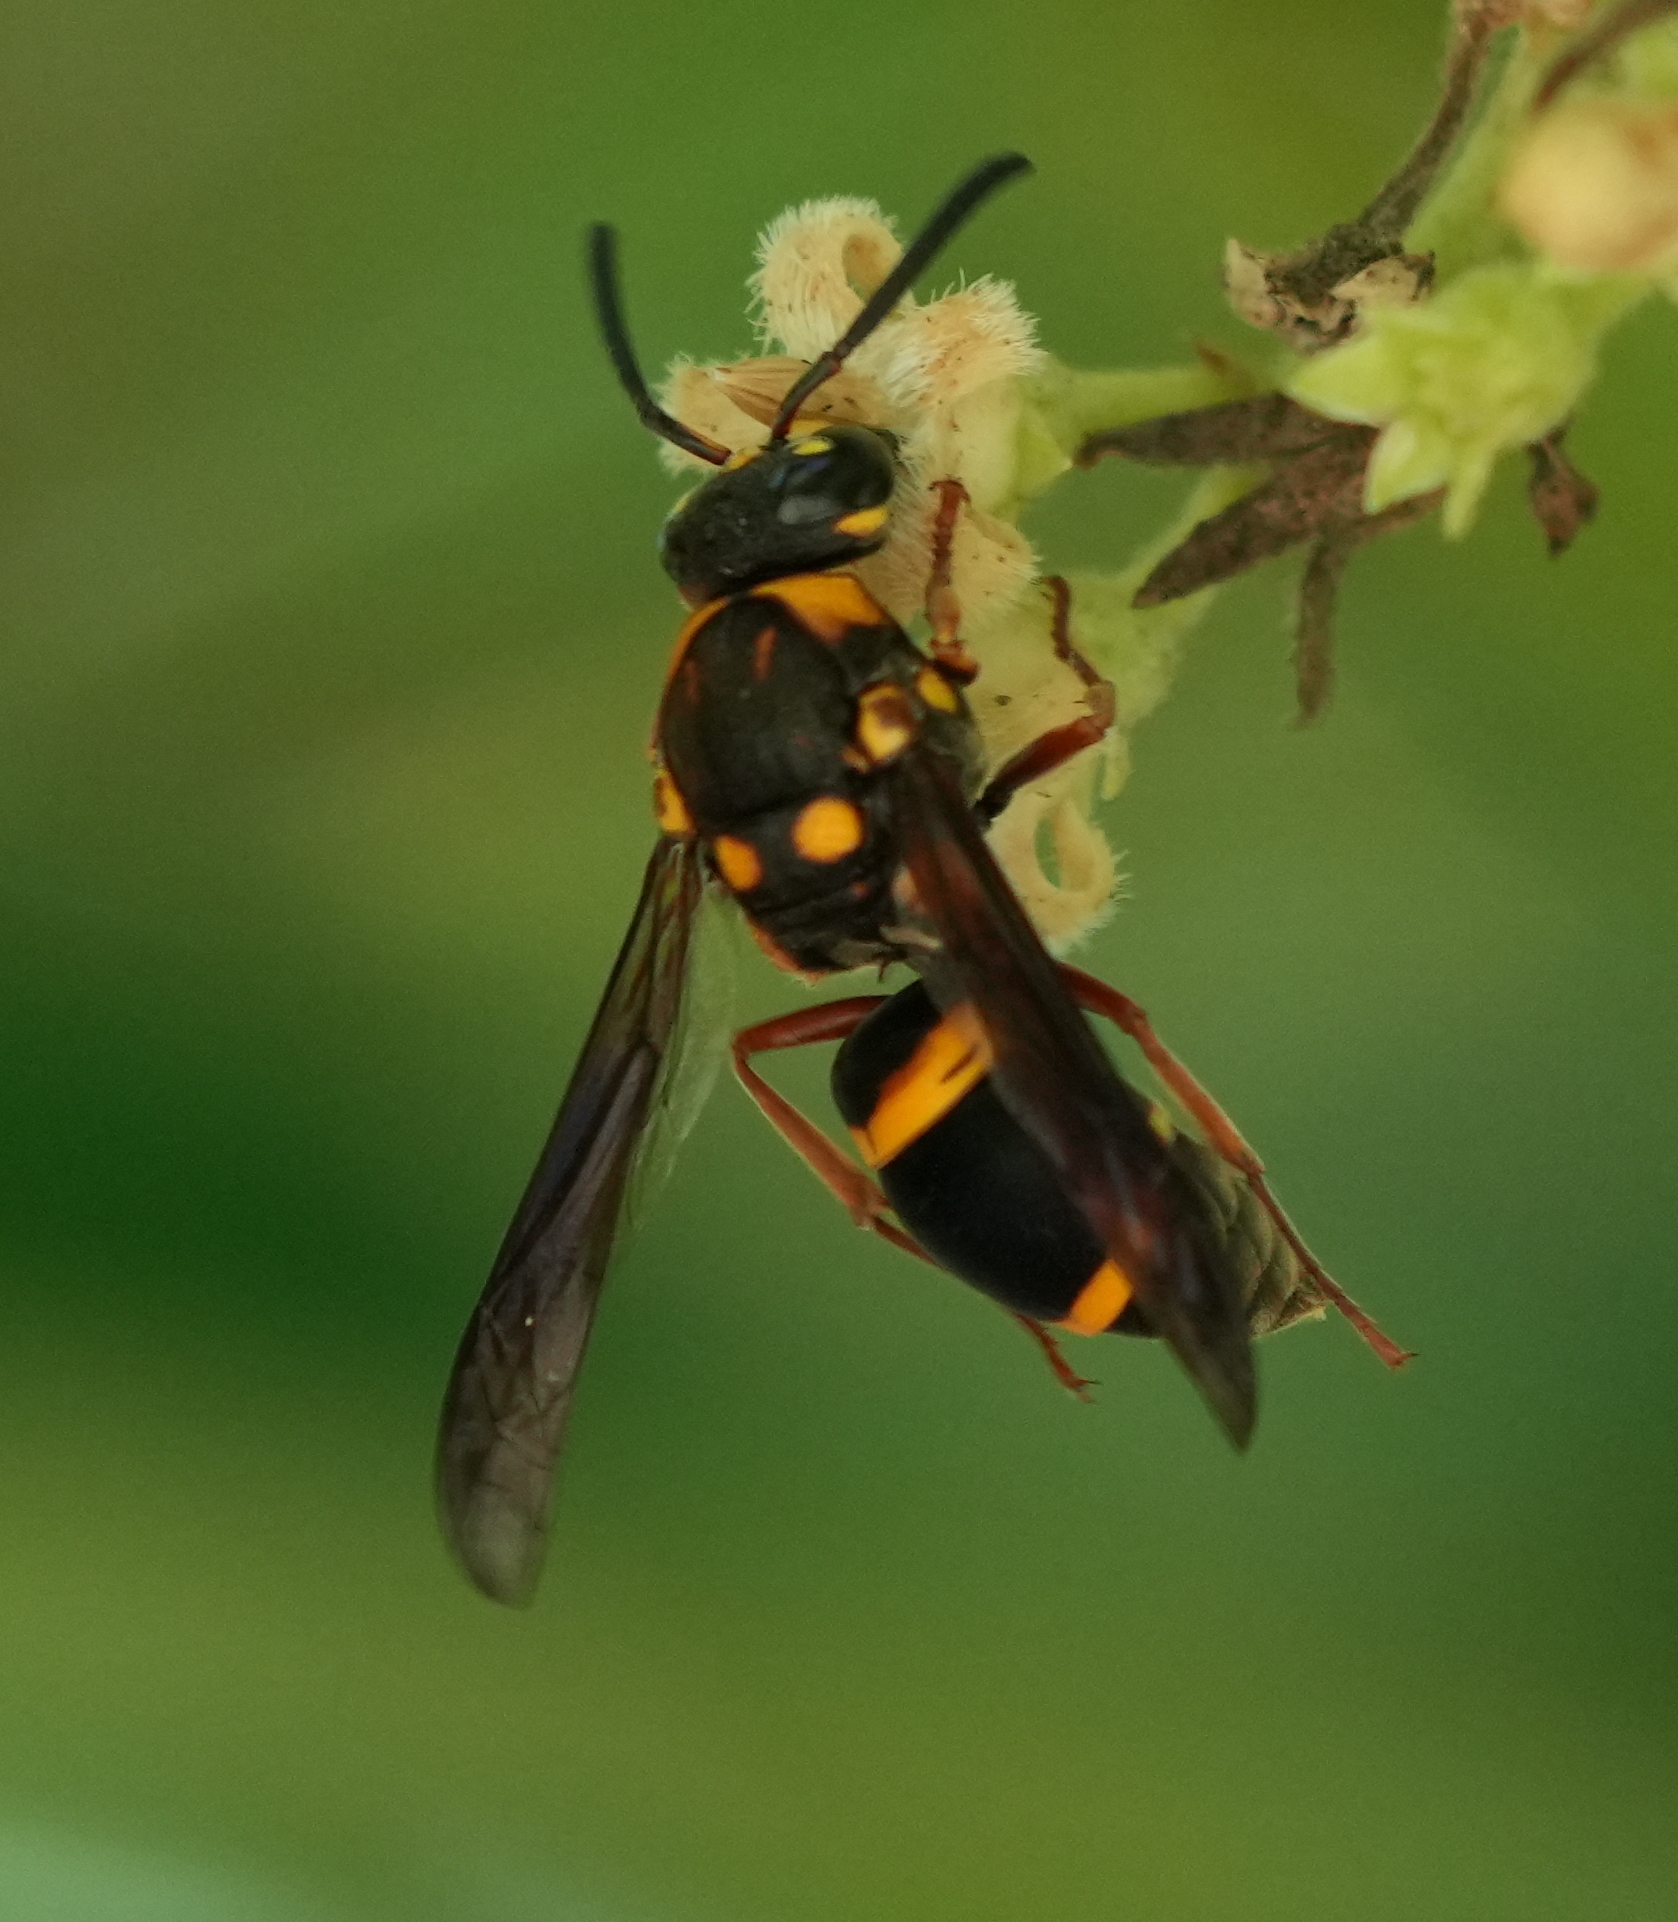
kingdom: Animalia
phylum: Arthropoda
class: Insecta
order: Hymenoptera
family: Eumenidae
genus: Euodynerus
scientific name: Euodynerus aspra
